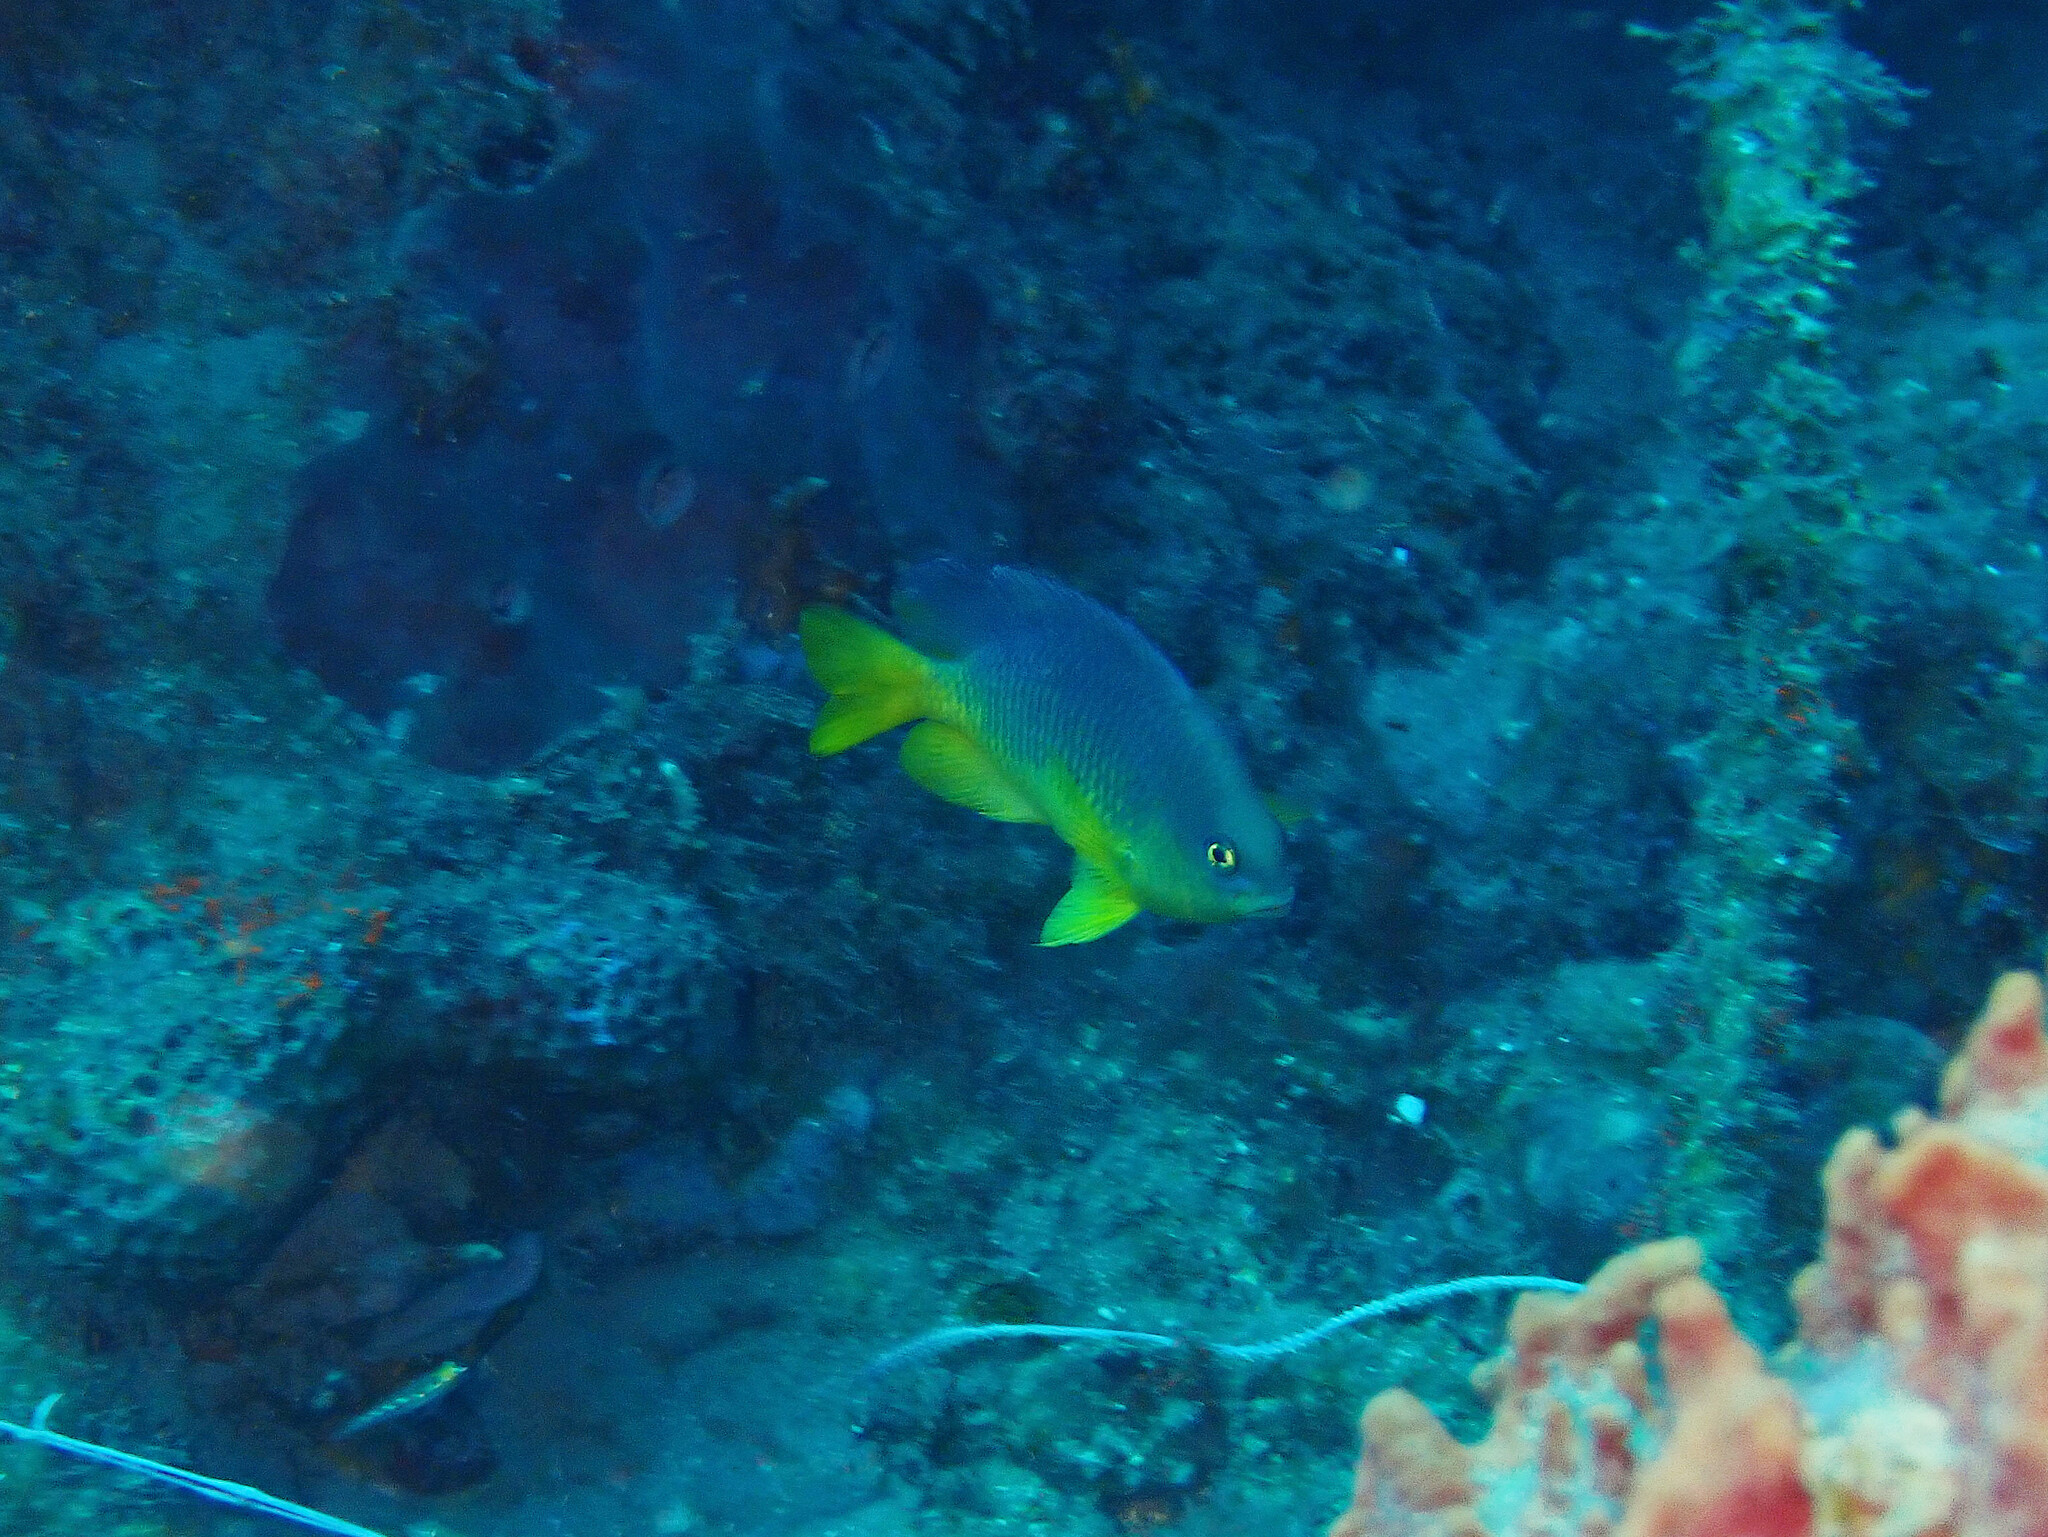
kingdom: Animalia
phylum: Chordata
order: Perciformes
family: Pomacentridae
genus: Stegastes
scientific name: Stegastes xanthurus
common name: Cocoa damselfish
